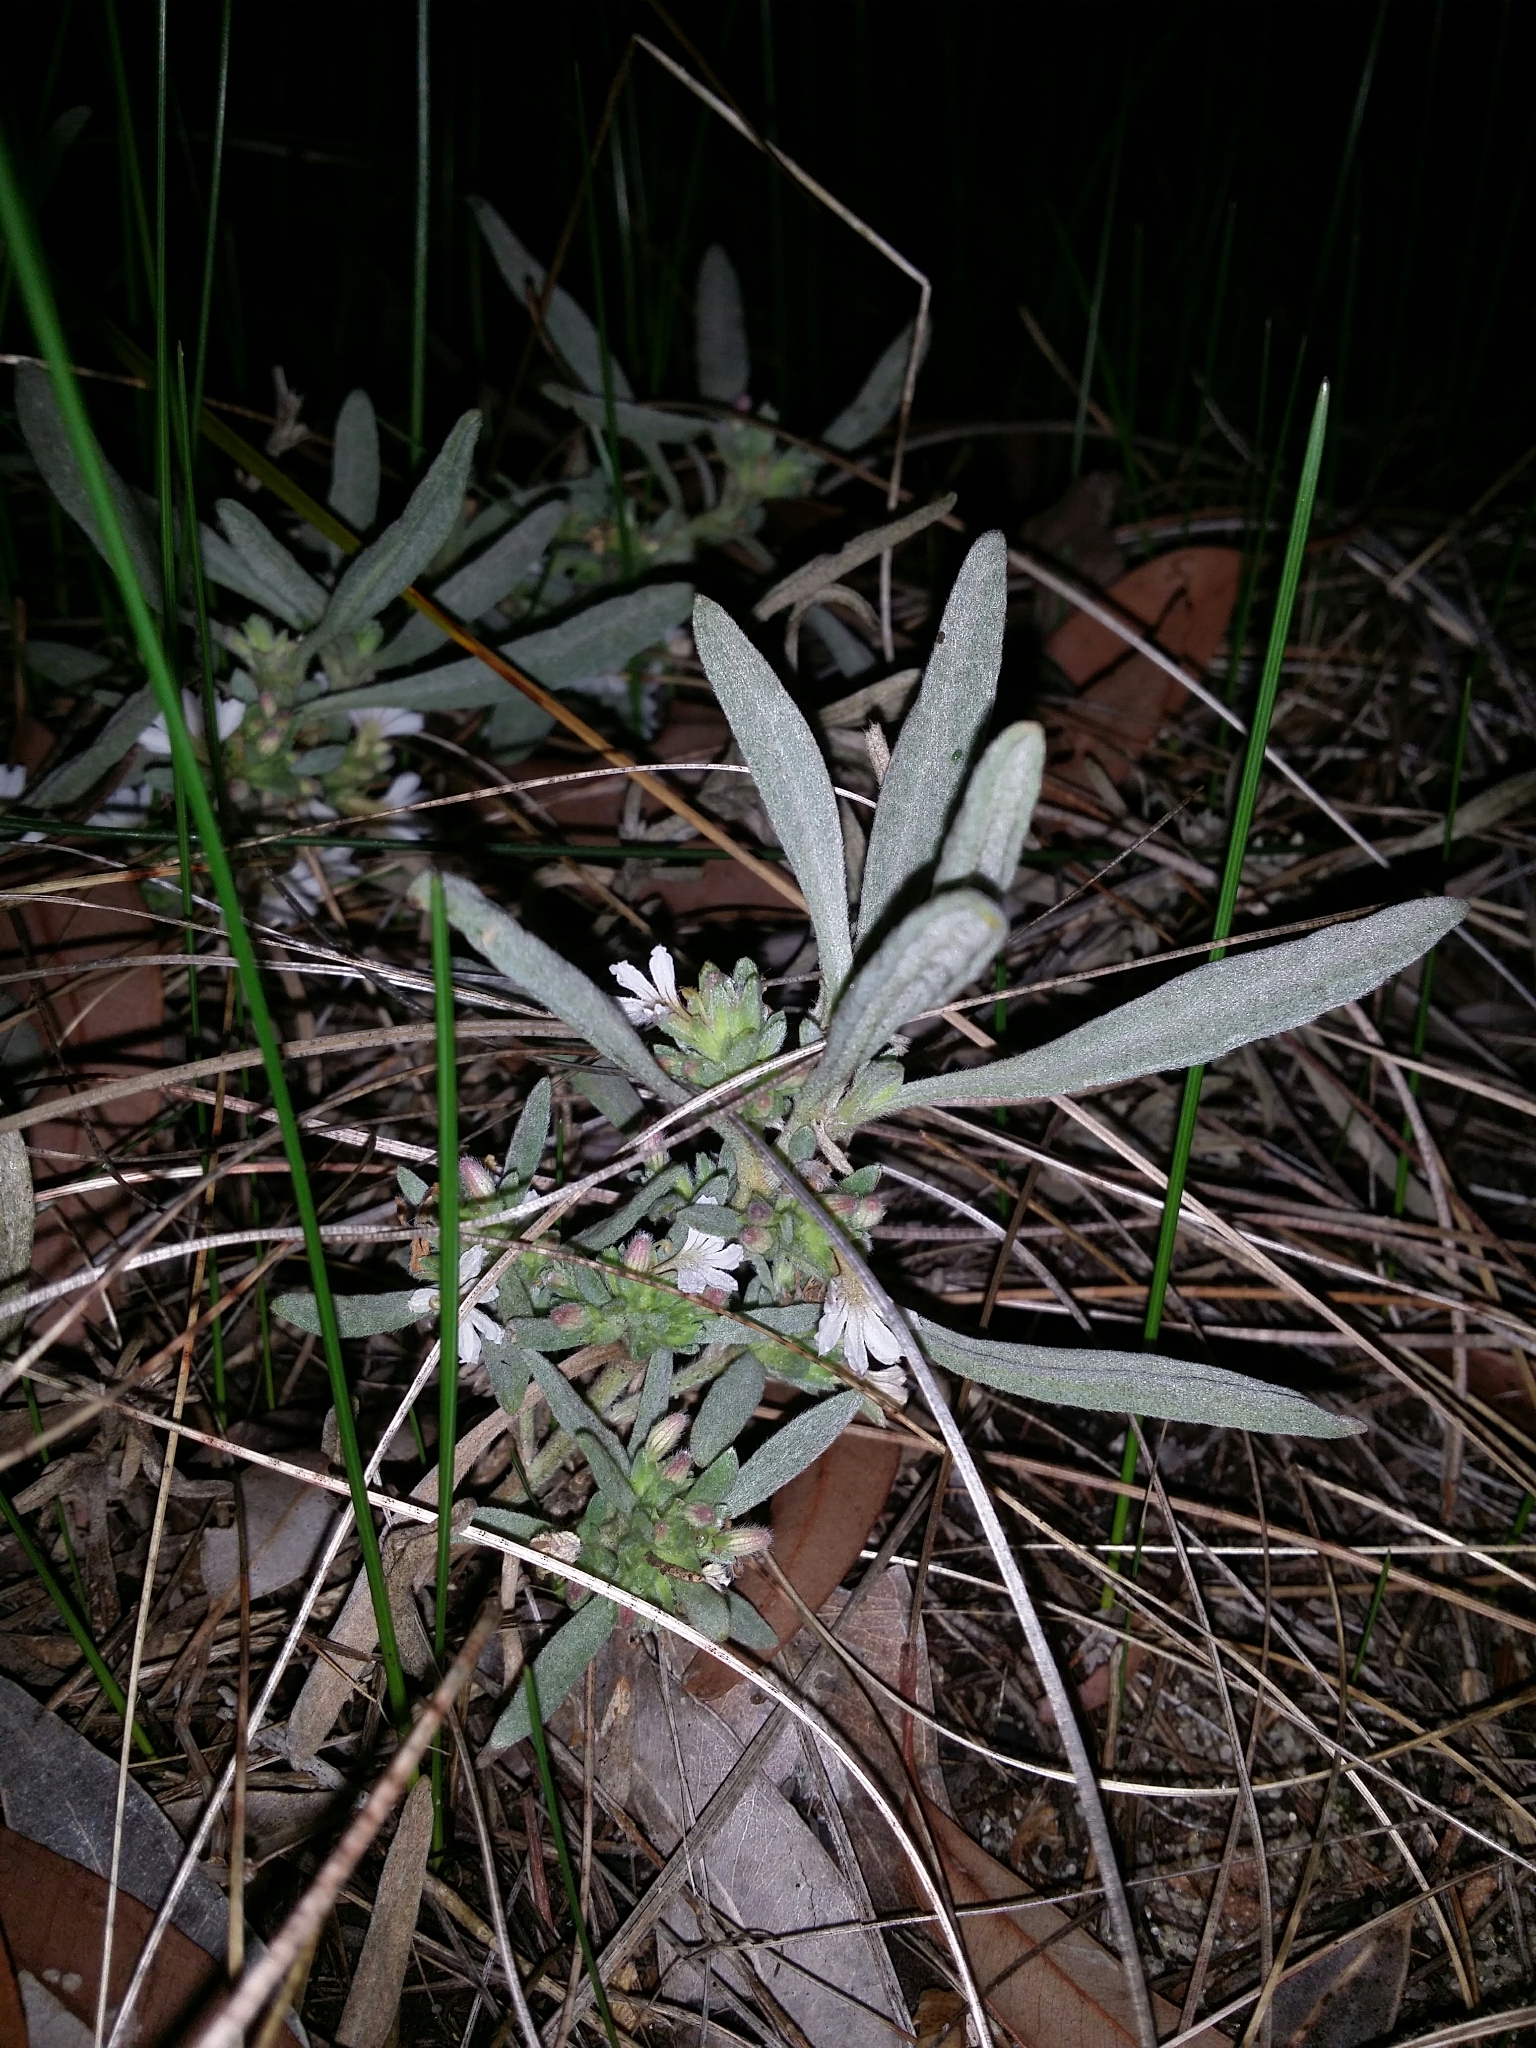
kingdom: Plantae
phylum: Tracheophyta
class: Magnoliopsida
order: Asterales
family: Goodeniaceae
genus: Scaevola
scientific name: Scaevola canescens
